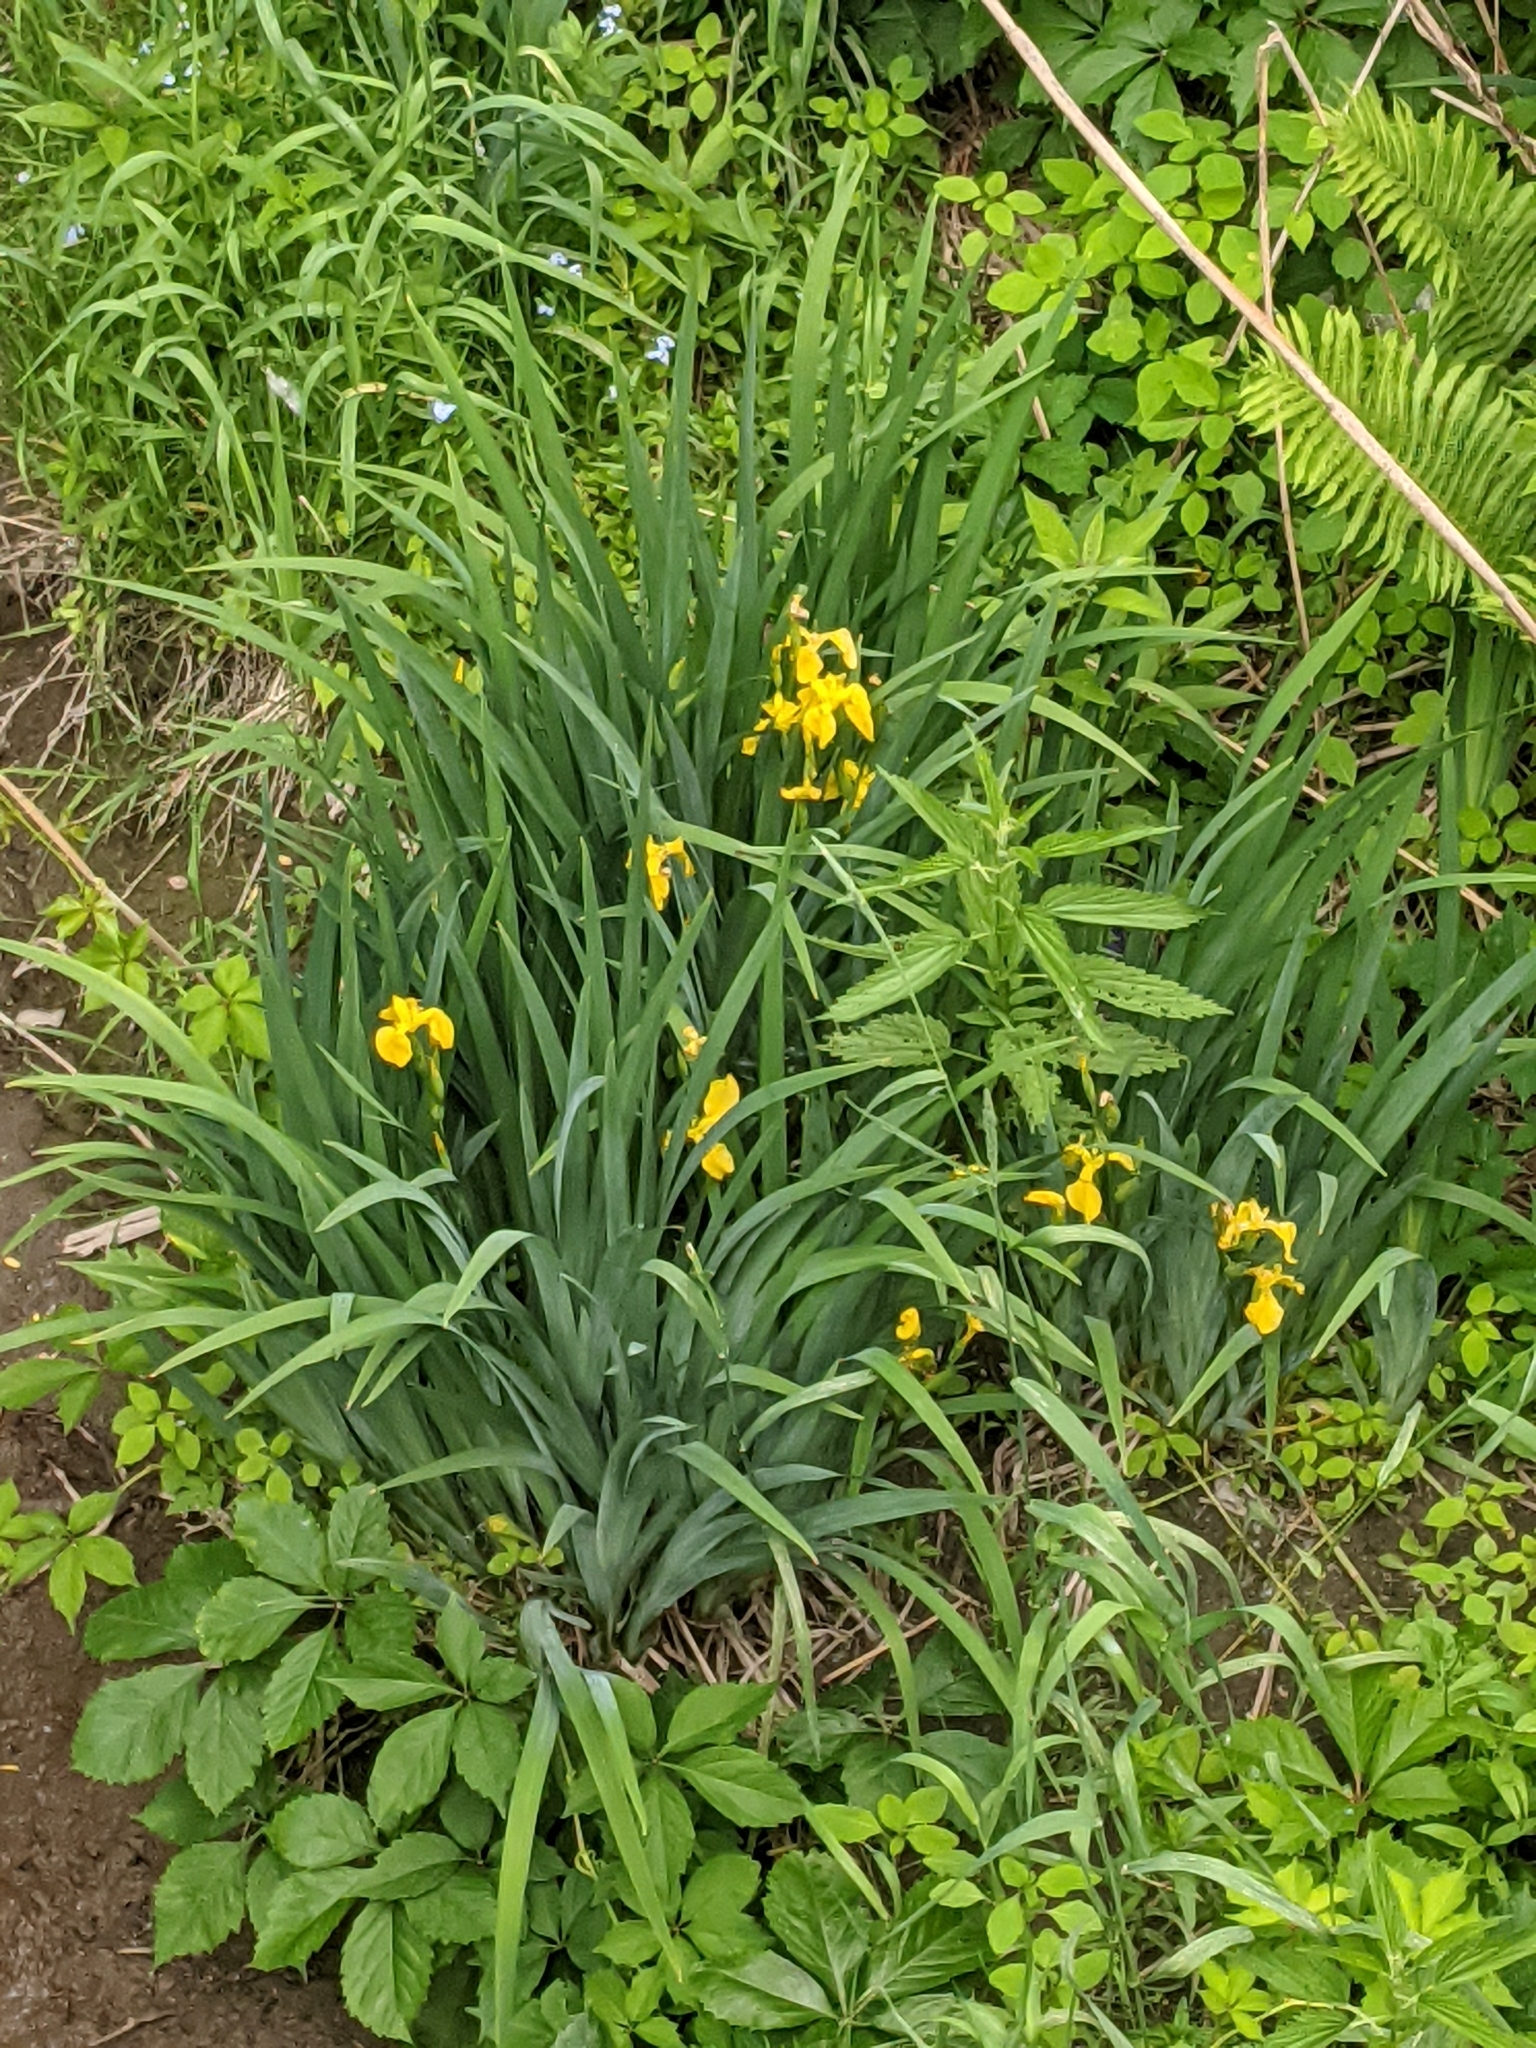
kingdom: Plantae
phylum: Tracheophyta
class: Liliopsida
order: Asparagales
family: Iridaceae
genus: Iris
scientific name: Iris pseudacorus
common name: Yellow flag
